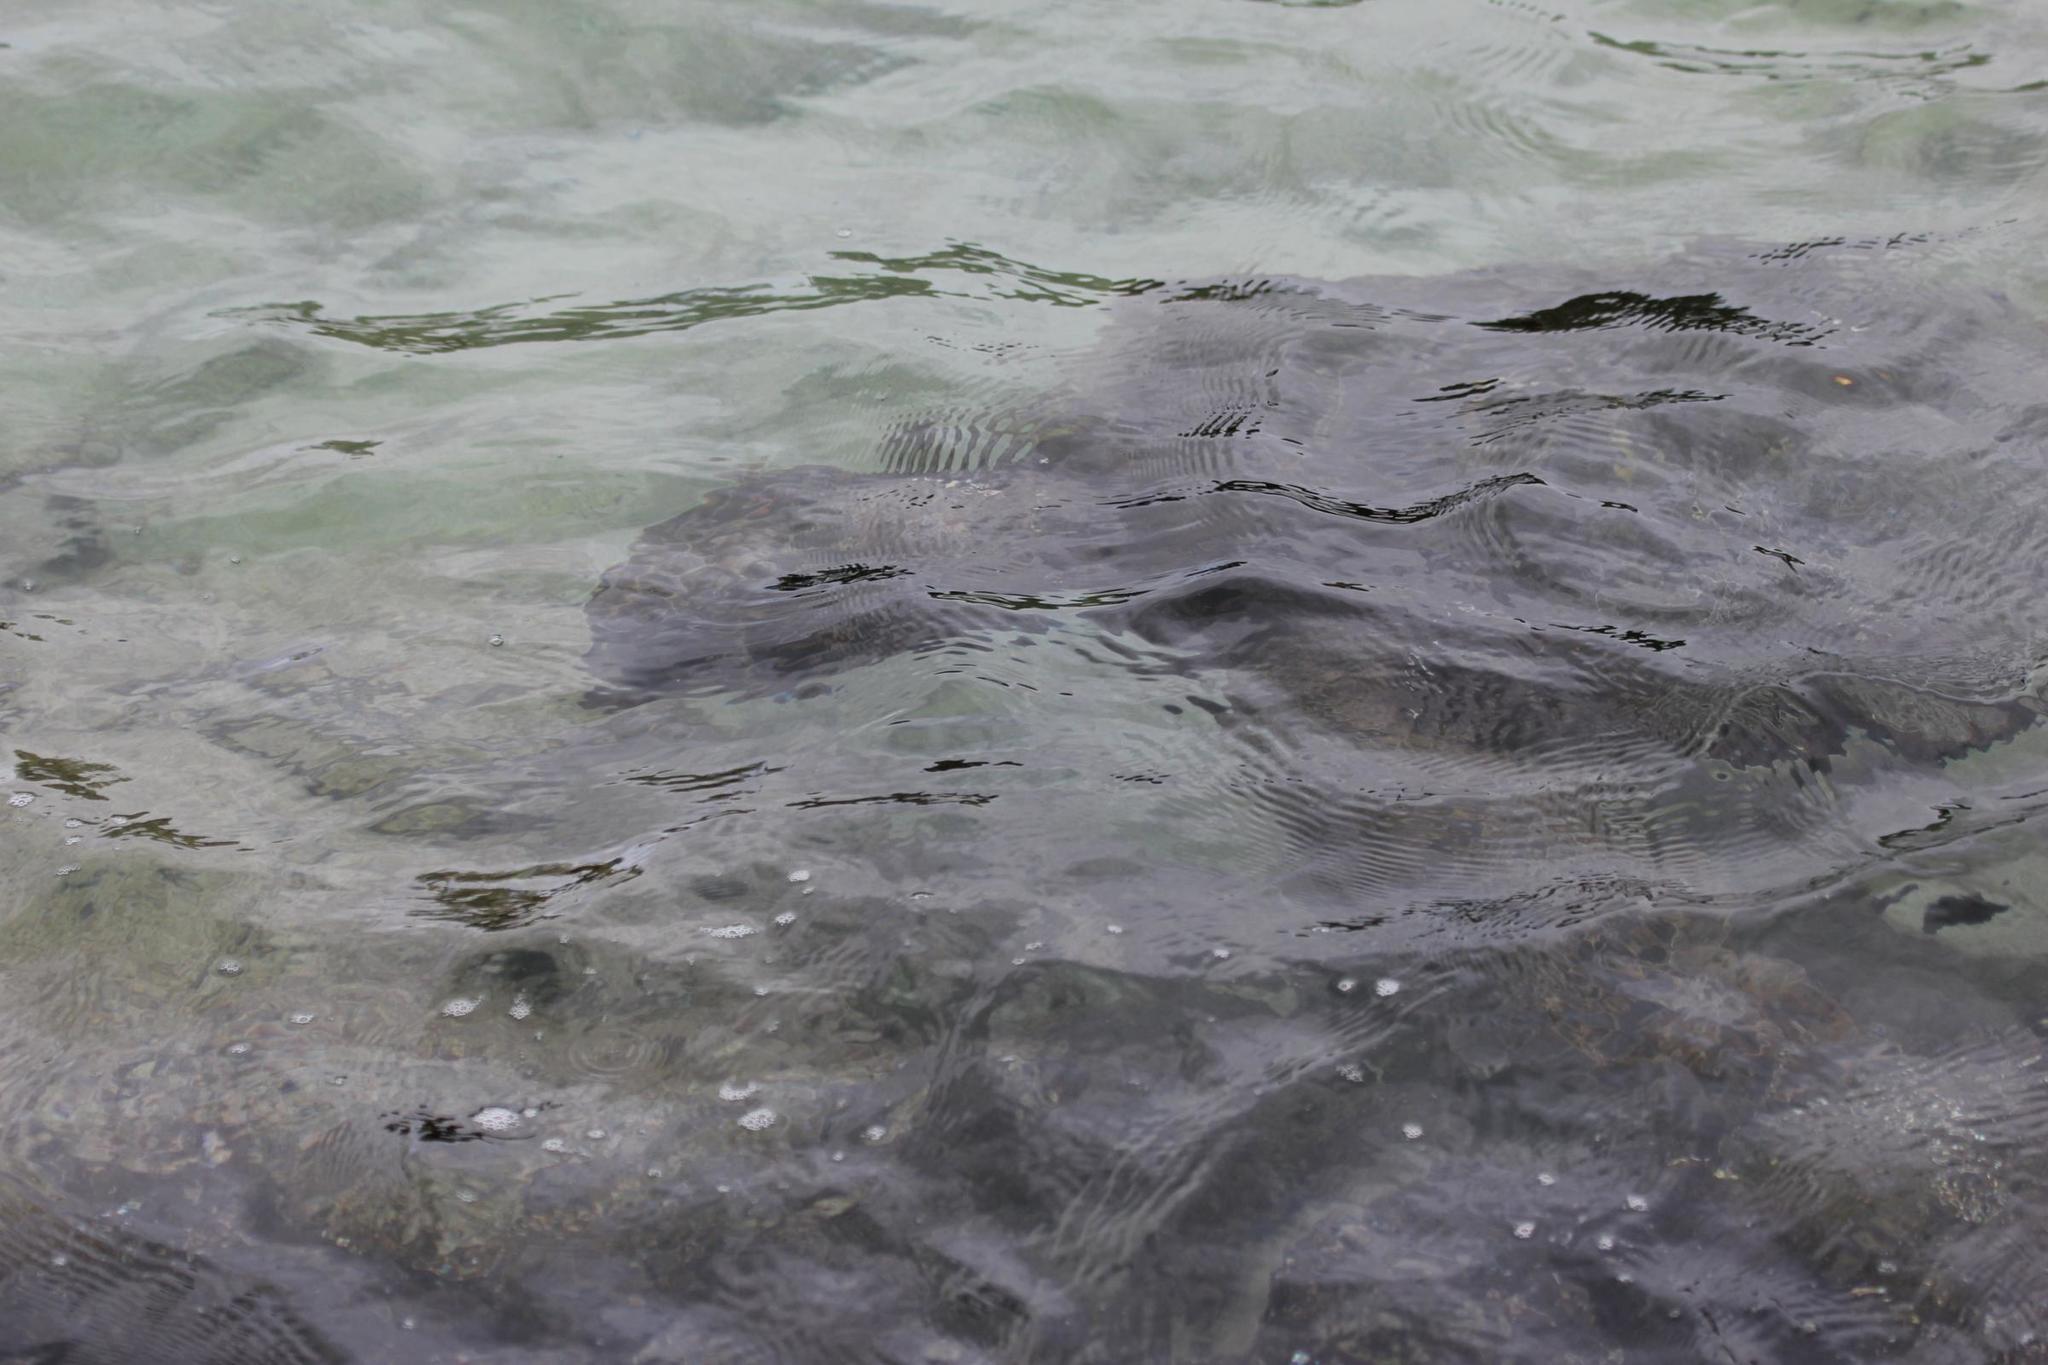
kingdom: Animalia
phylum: Chordata
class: Testudines
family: Cheloniidae
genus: Chelonia
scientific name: Chelonia mydas
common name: Green turtle
